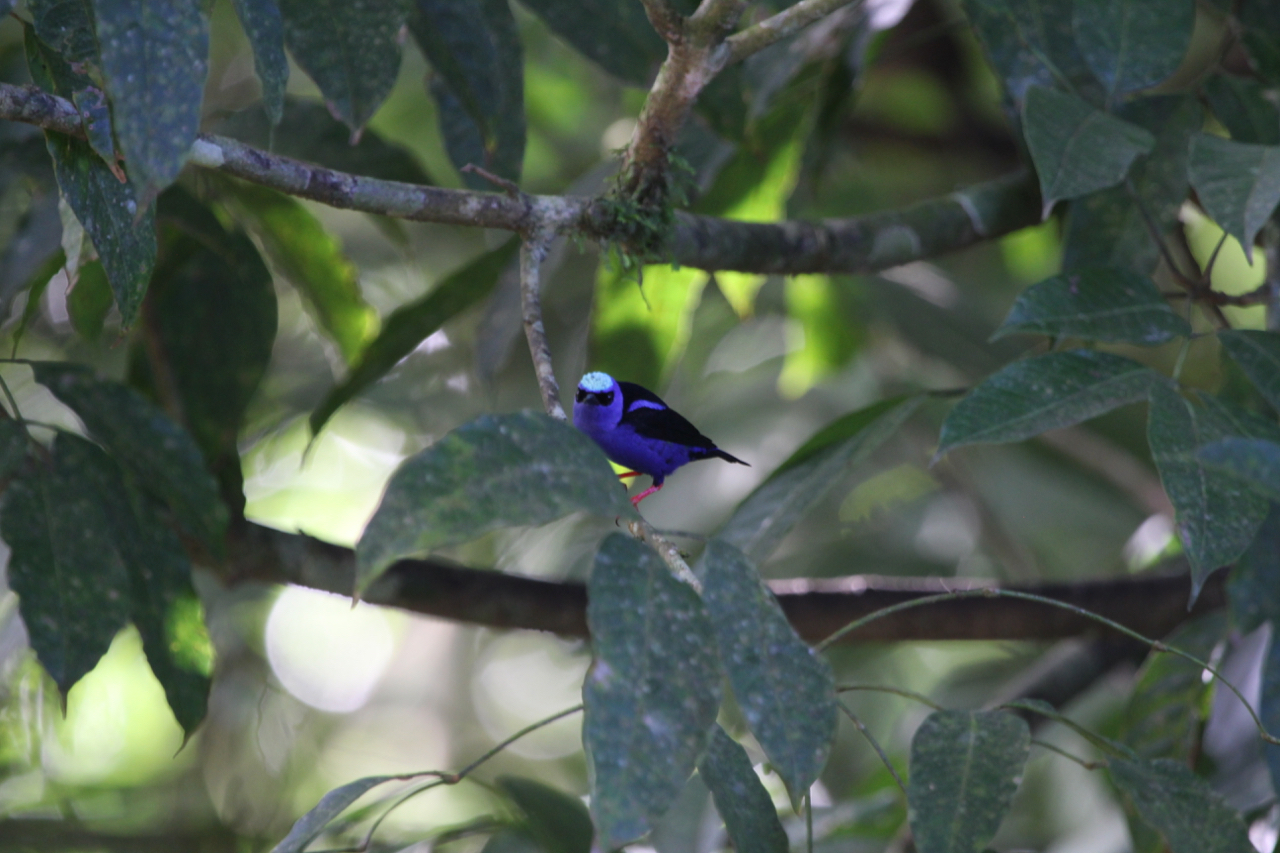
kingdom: Animalia
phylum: Chordata
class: Aves
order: Passeriformes
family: Thraupidae
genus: Cyanerpes
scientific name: Cyanerpes cyaneus
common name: Red-legged honeycreeper
